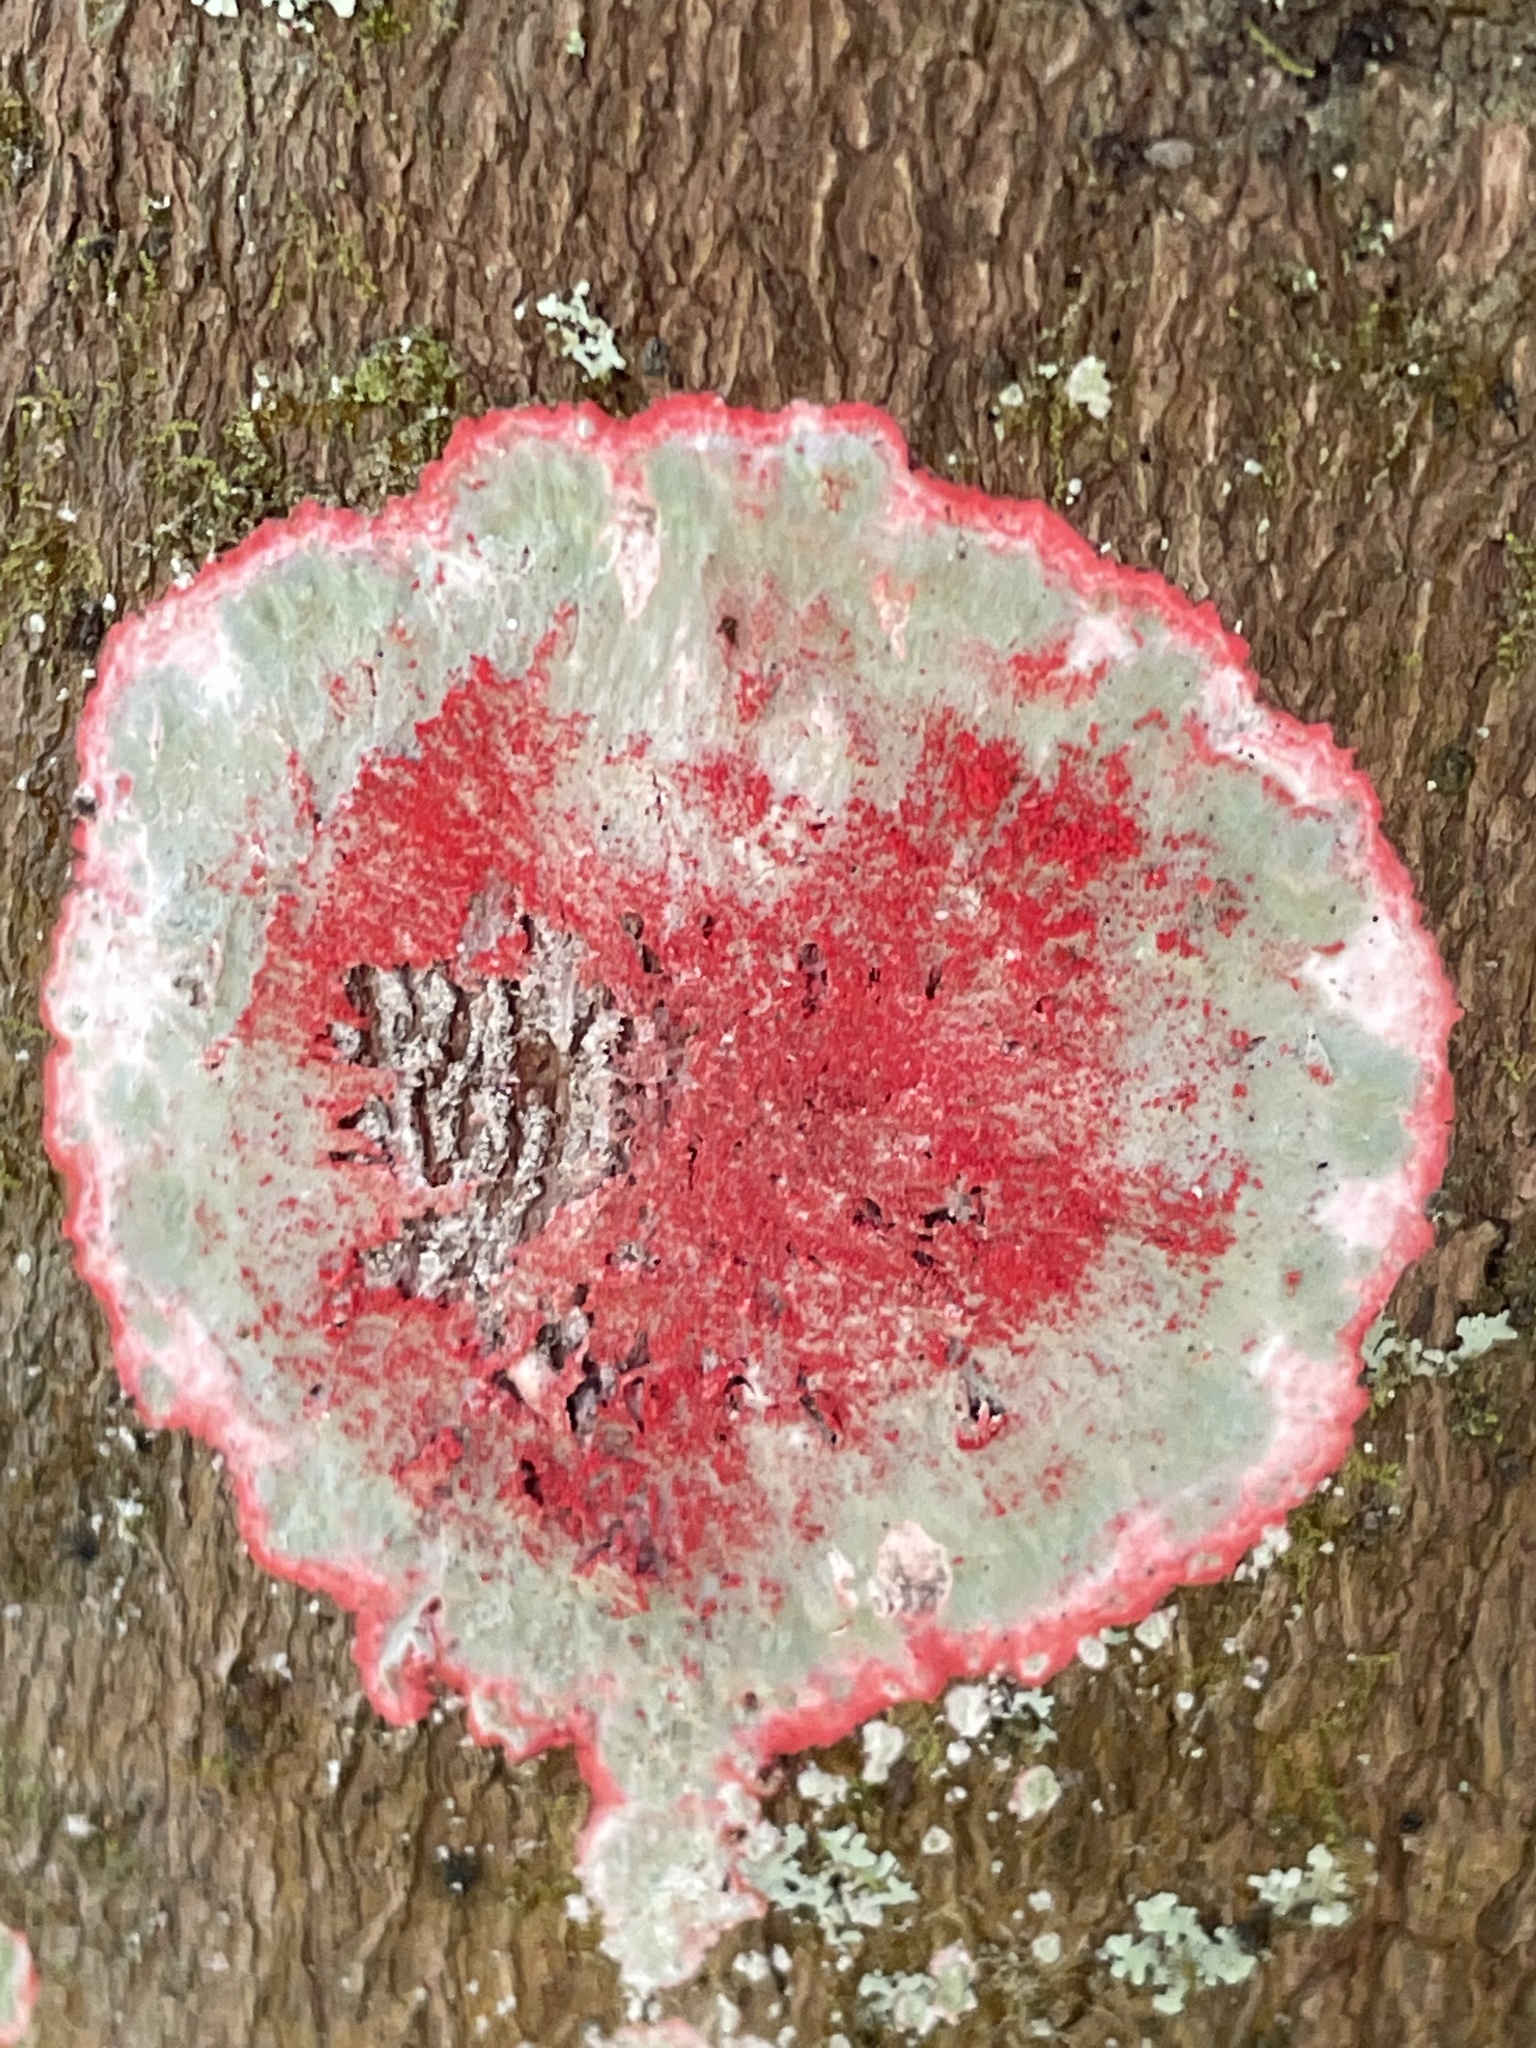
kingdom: Fungi
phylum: Ascomycota
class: Arthoniomycetes
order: Arthoniales
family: Arthoniaceae
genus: Herpothallon
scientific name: Herpothallon rubrocinctum
